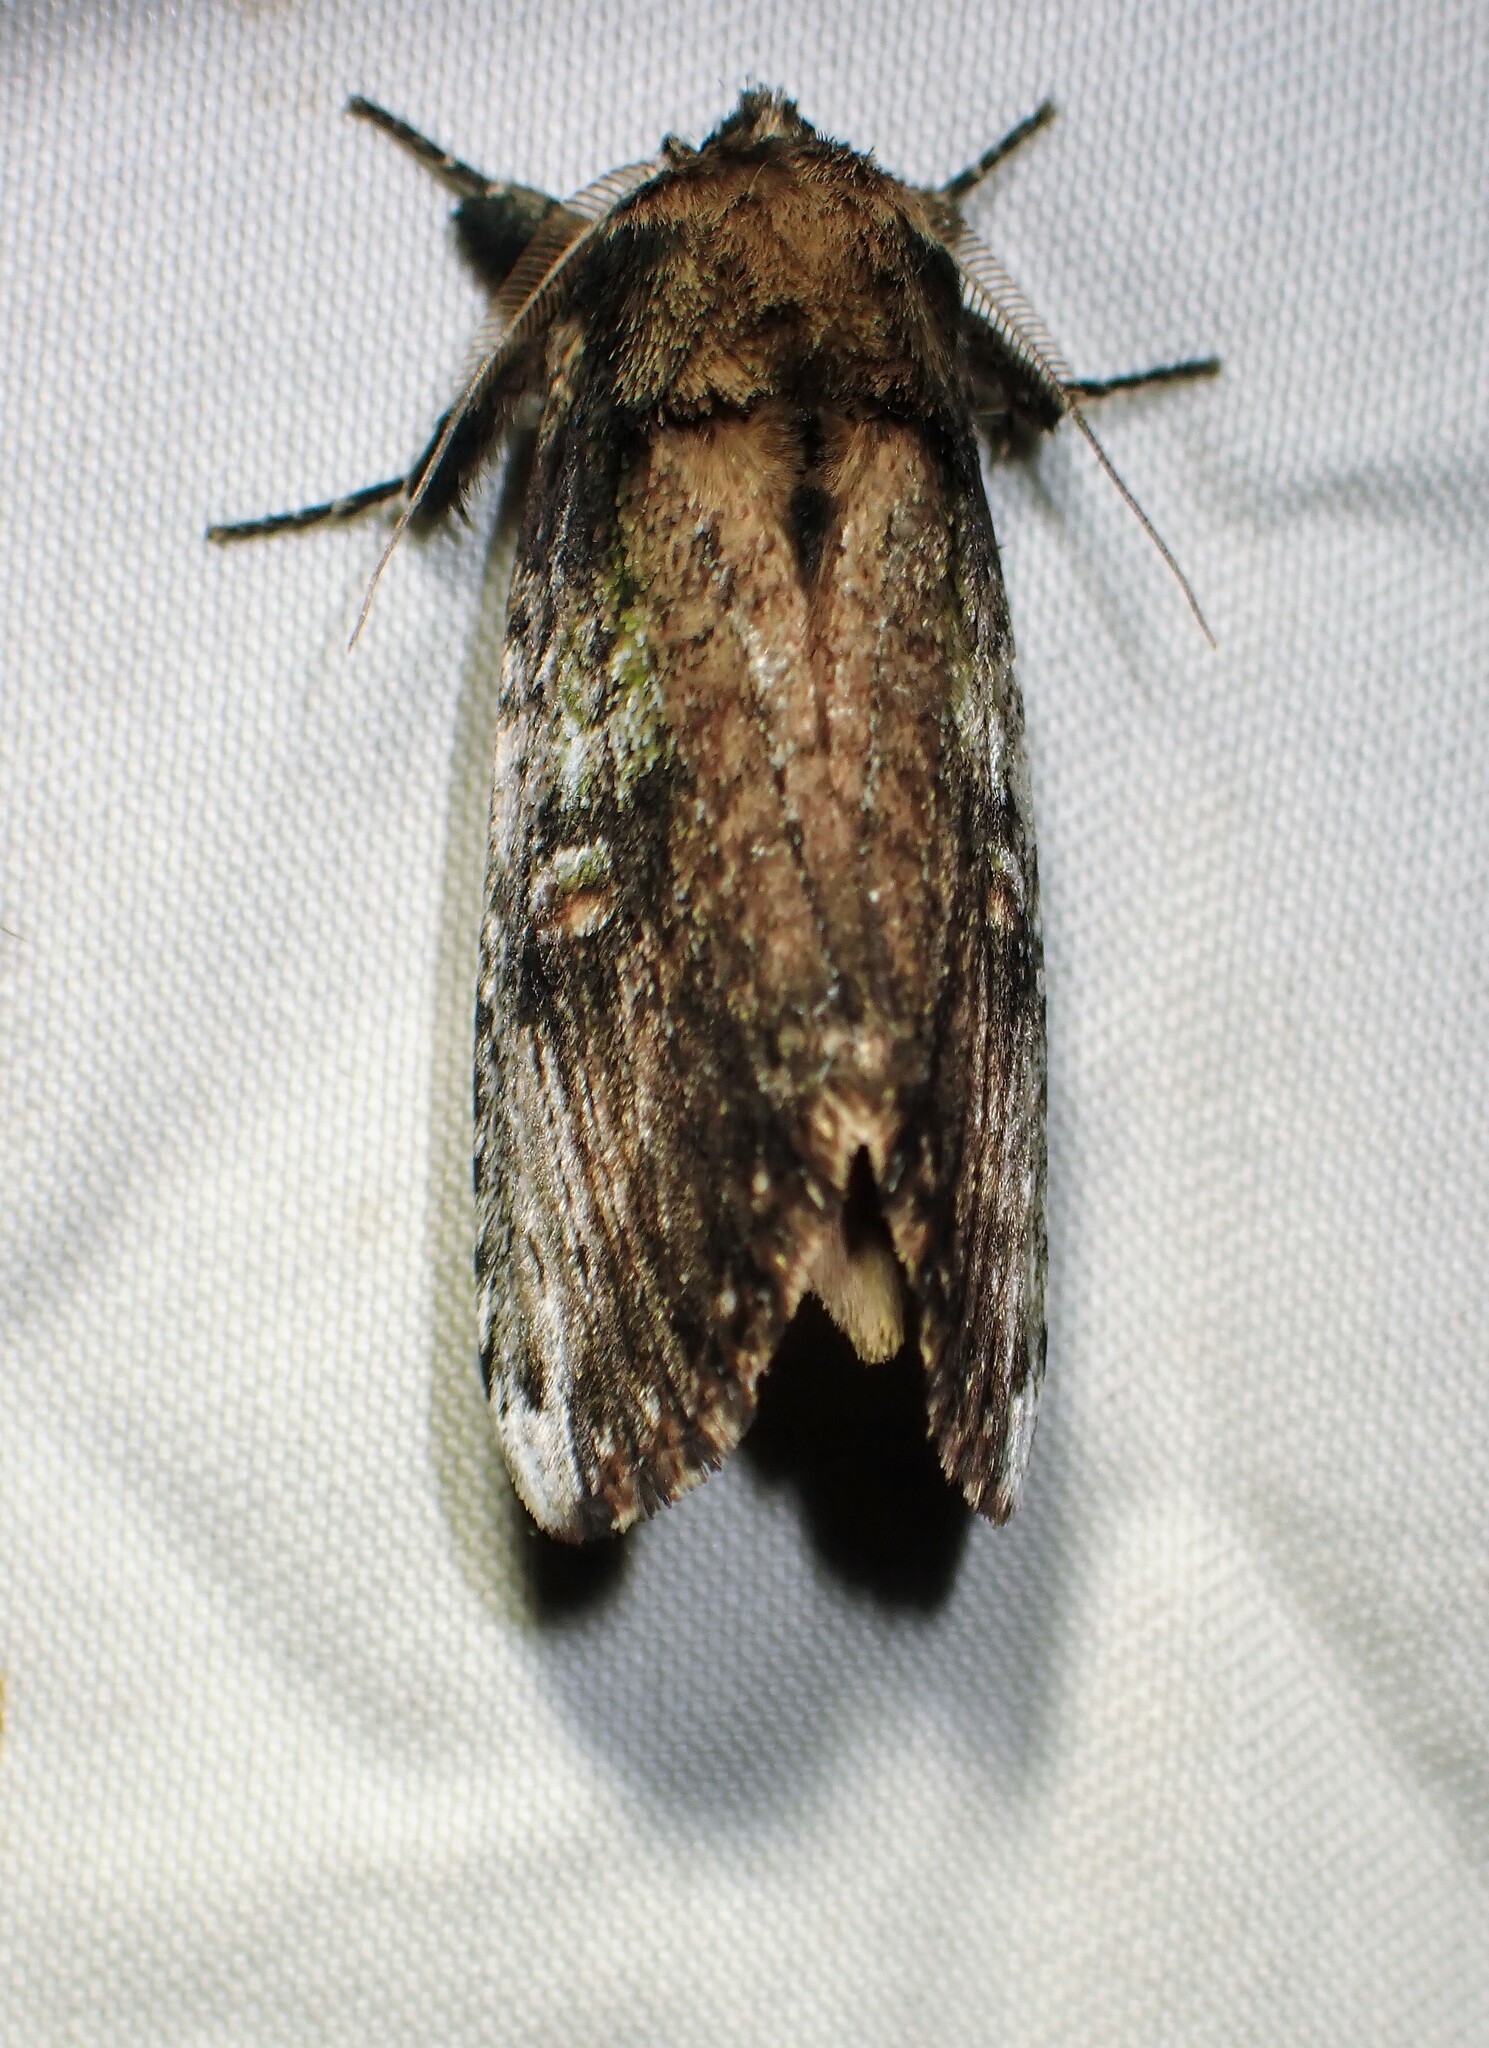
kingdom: Animalia
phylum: Arthropoda
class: Insecta
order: Lepidoptera
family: Notodontidae
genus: Schizura
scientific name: Schizura ipomaeae
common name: Morning-glory prominent
